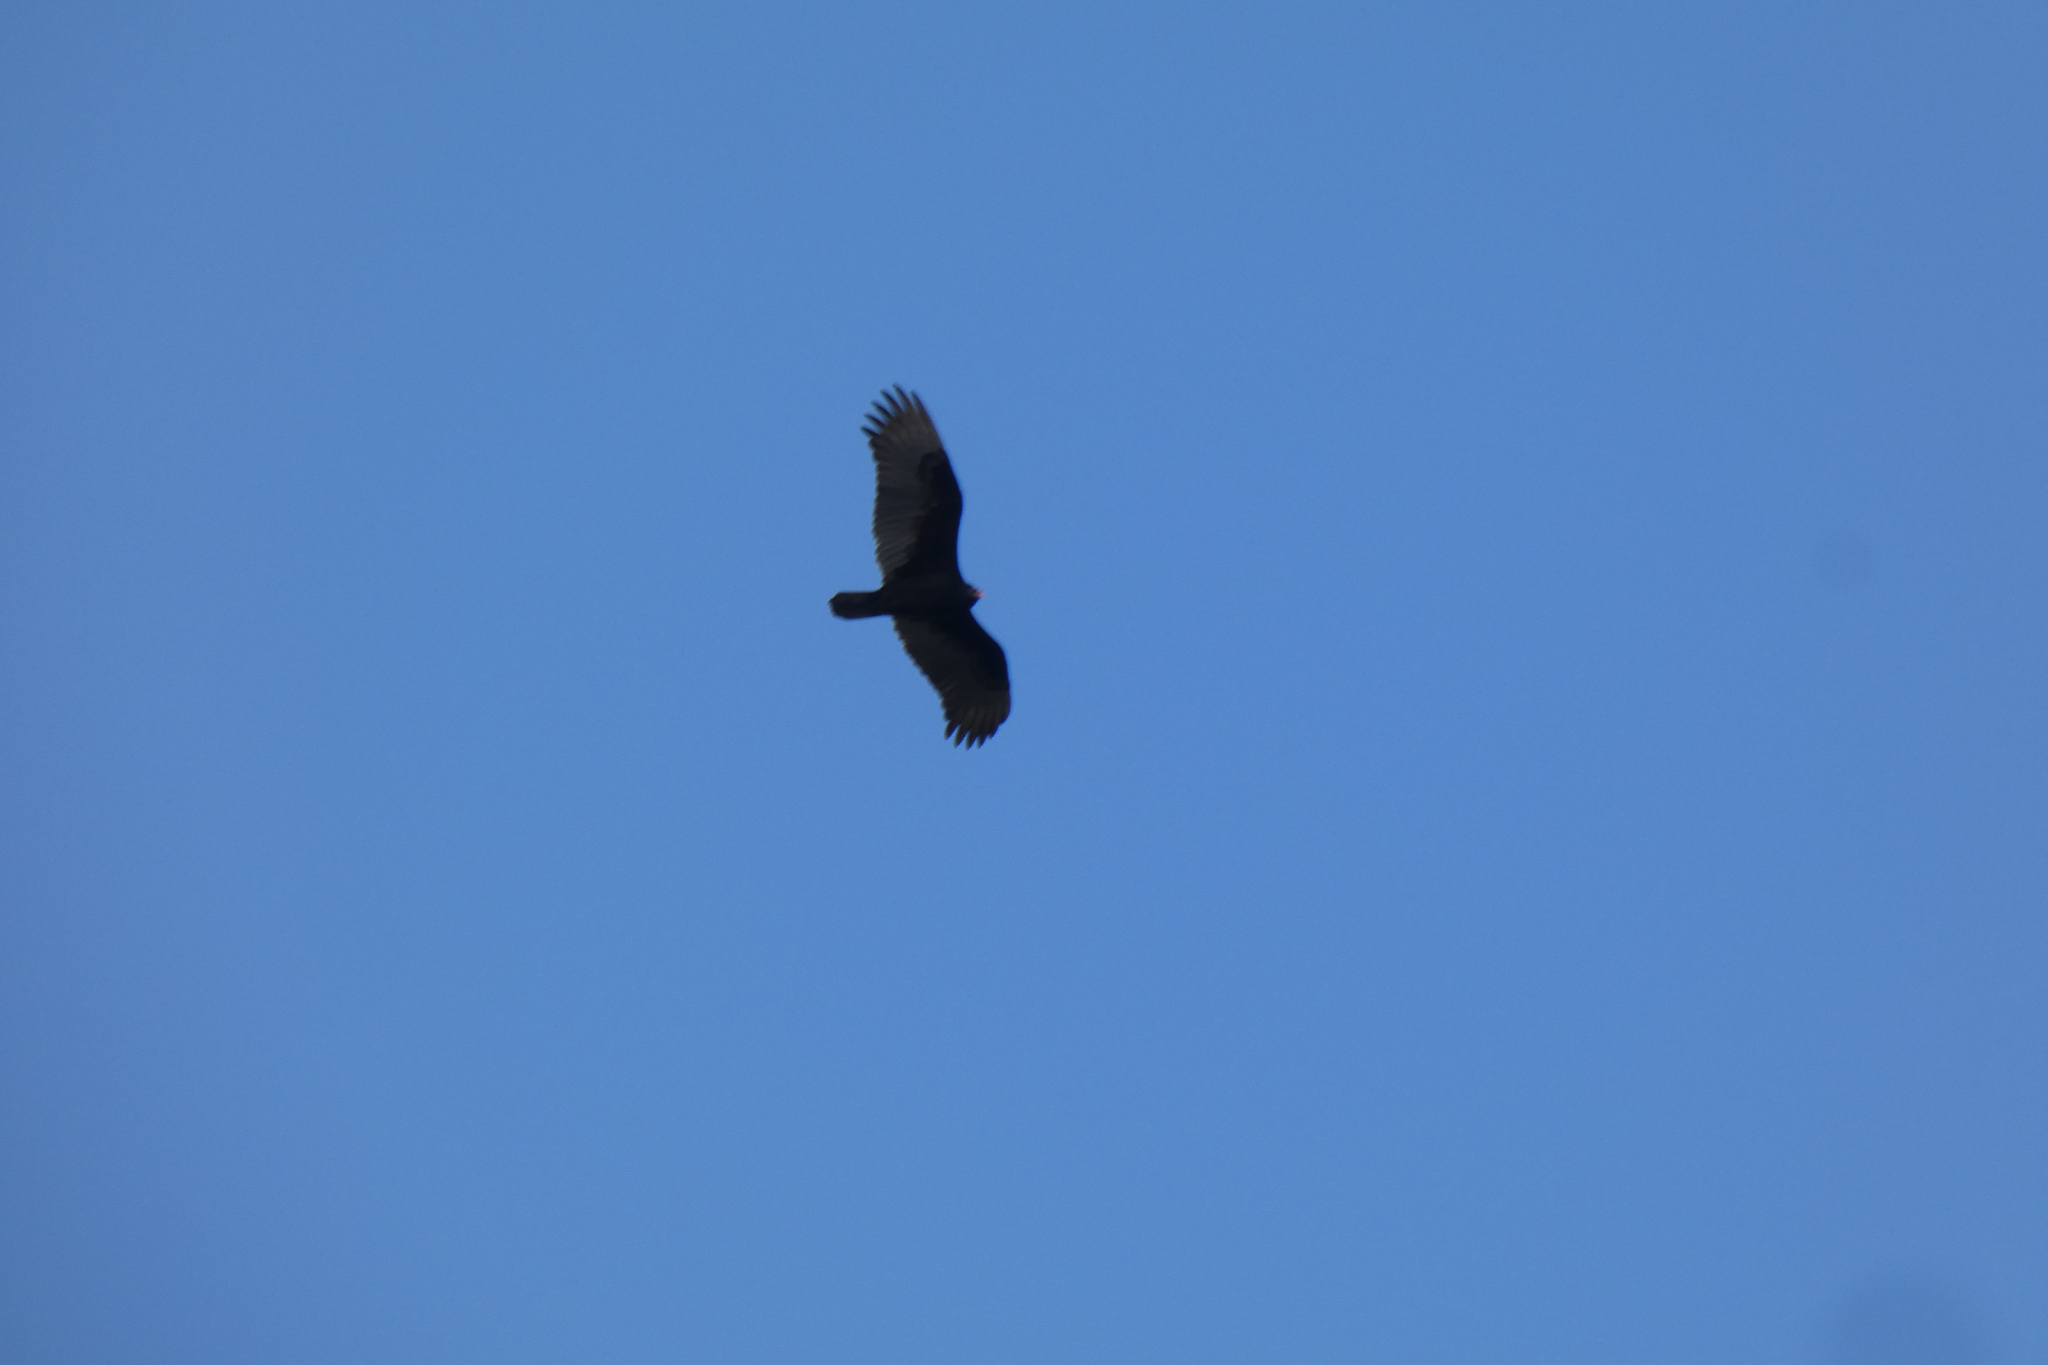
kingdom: Animalia
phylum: Chordata
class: Aves
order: Accipitriformes
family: Cathartidae
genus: Cathartes
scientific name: Cathartes aura
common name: Turkey vulture
